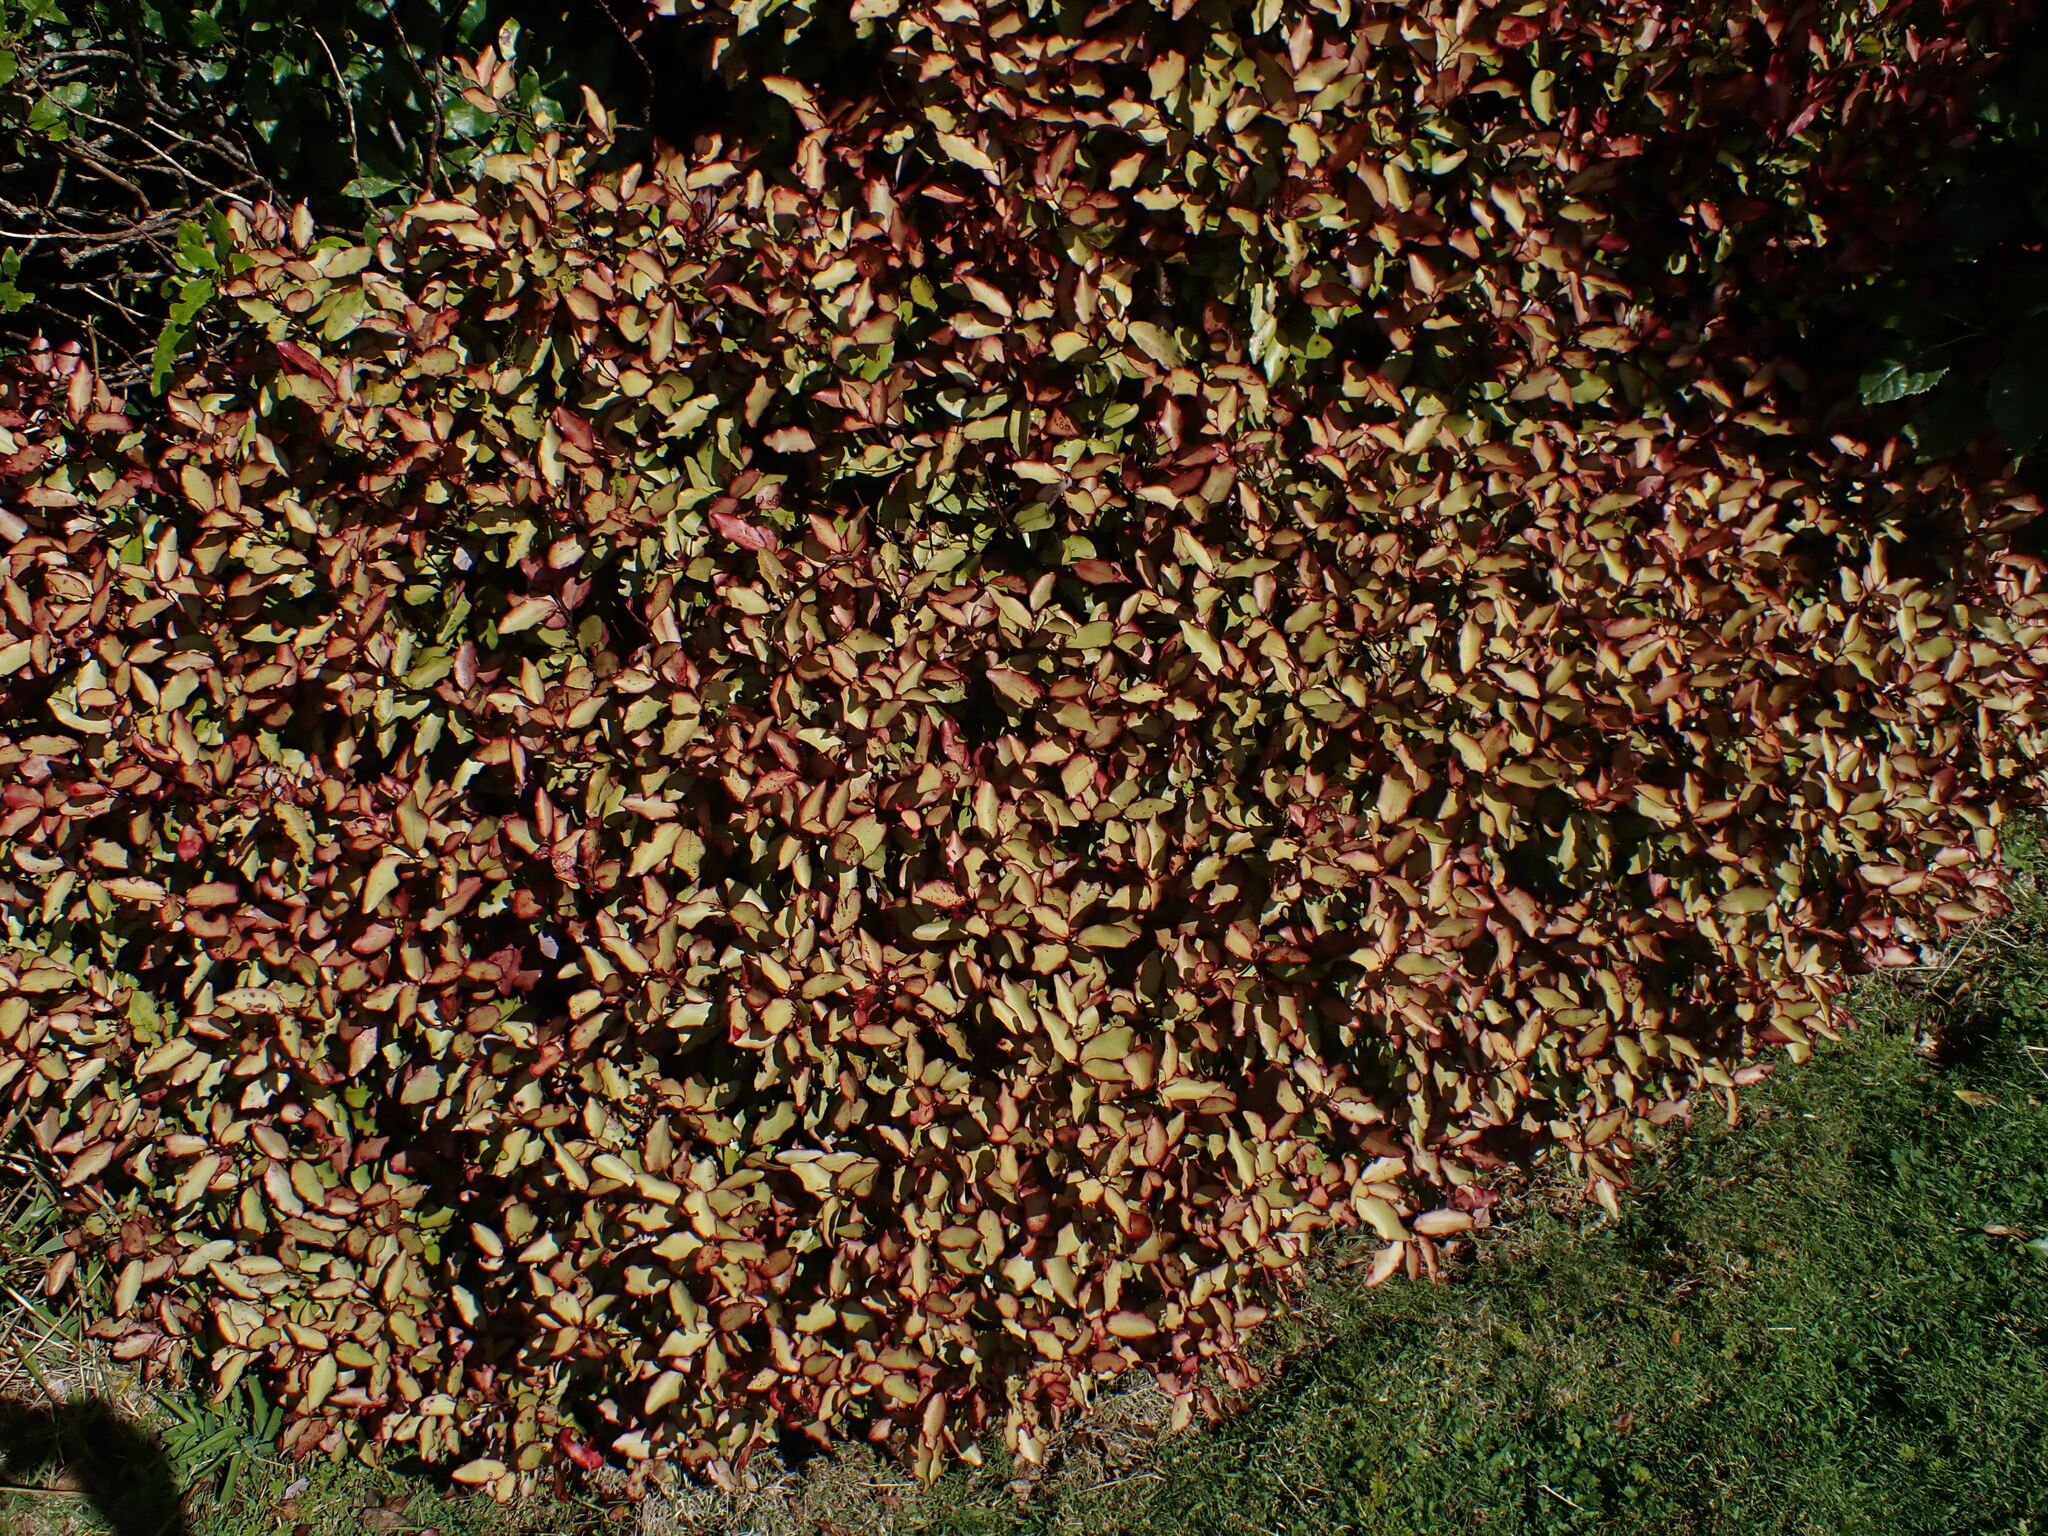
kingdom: Plantae
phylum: Tracheophyta
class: Magnoliopsida
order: Canellales
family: Winteraceae
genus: Pseudowintera
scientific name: Pseudowintera colorata
